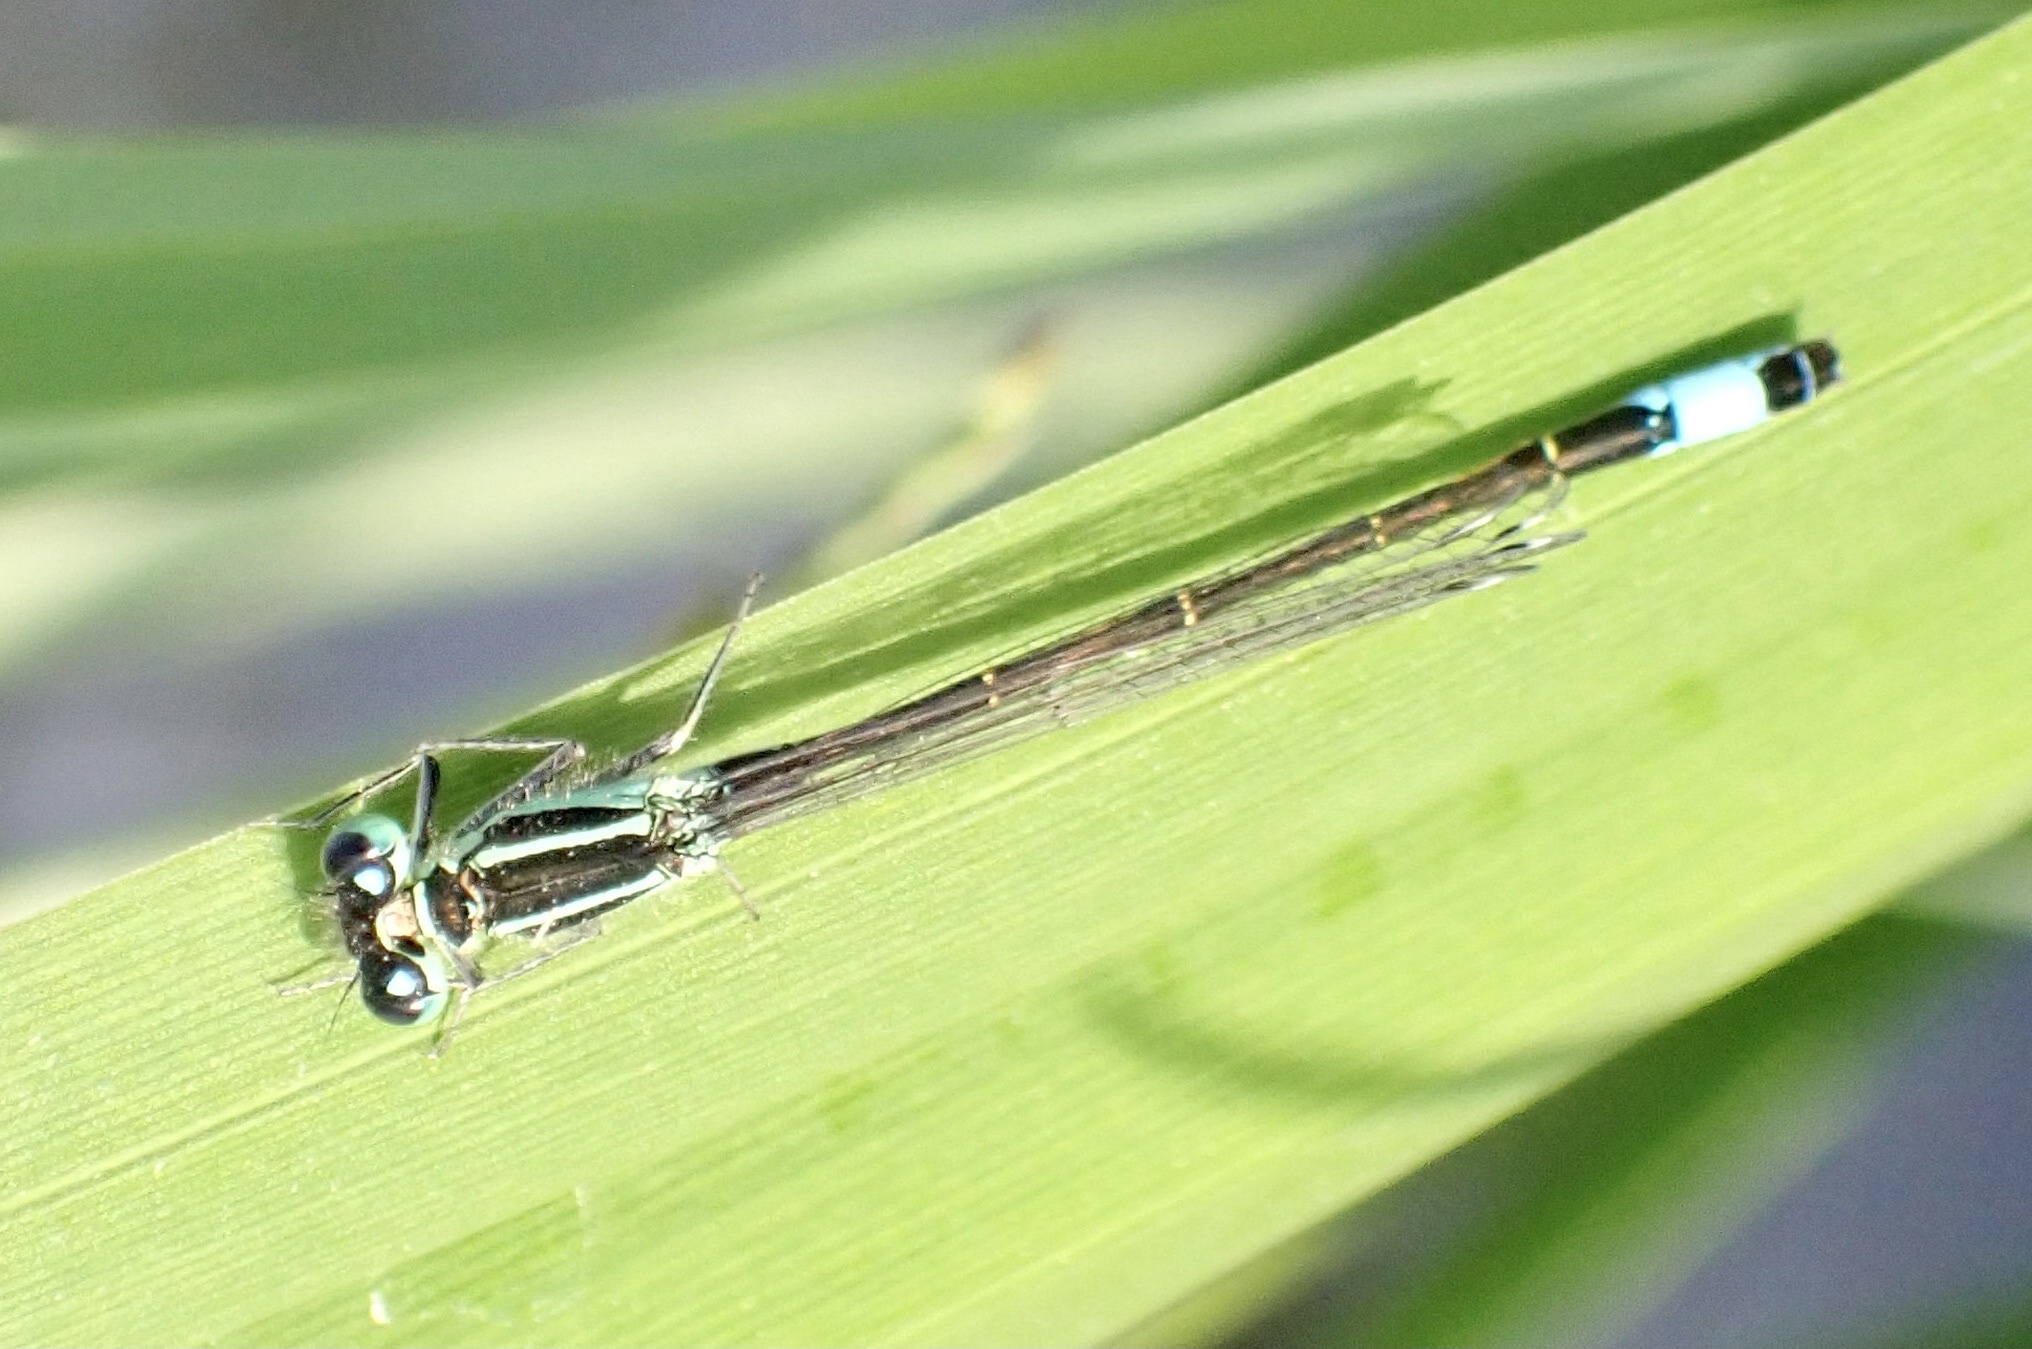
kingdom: Animalia
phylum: Arthropoda
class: Insecta
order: Odonata
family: Coenagrionidae
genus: Ischnura
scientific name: Ischnura elegans
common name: Blue-tailed damselfly
